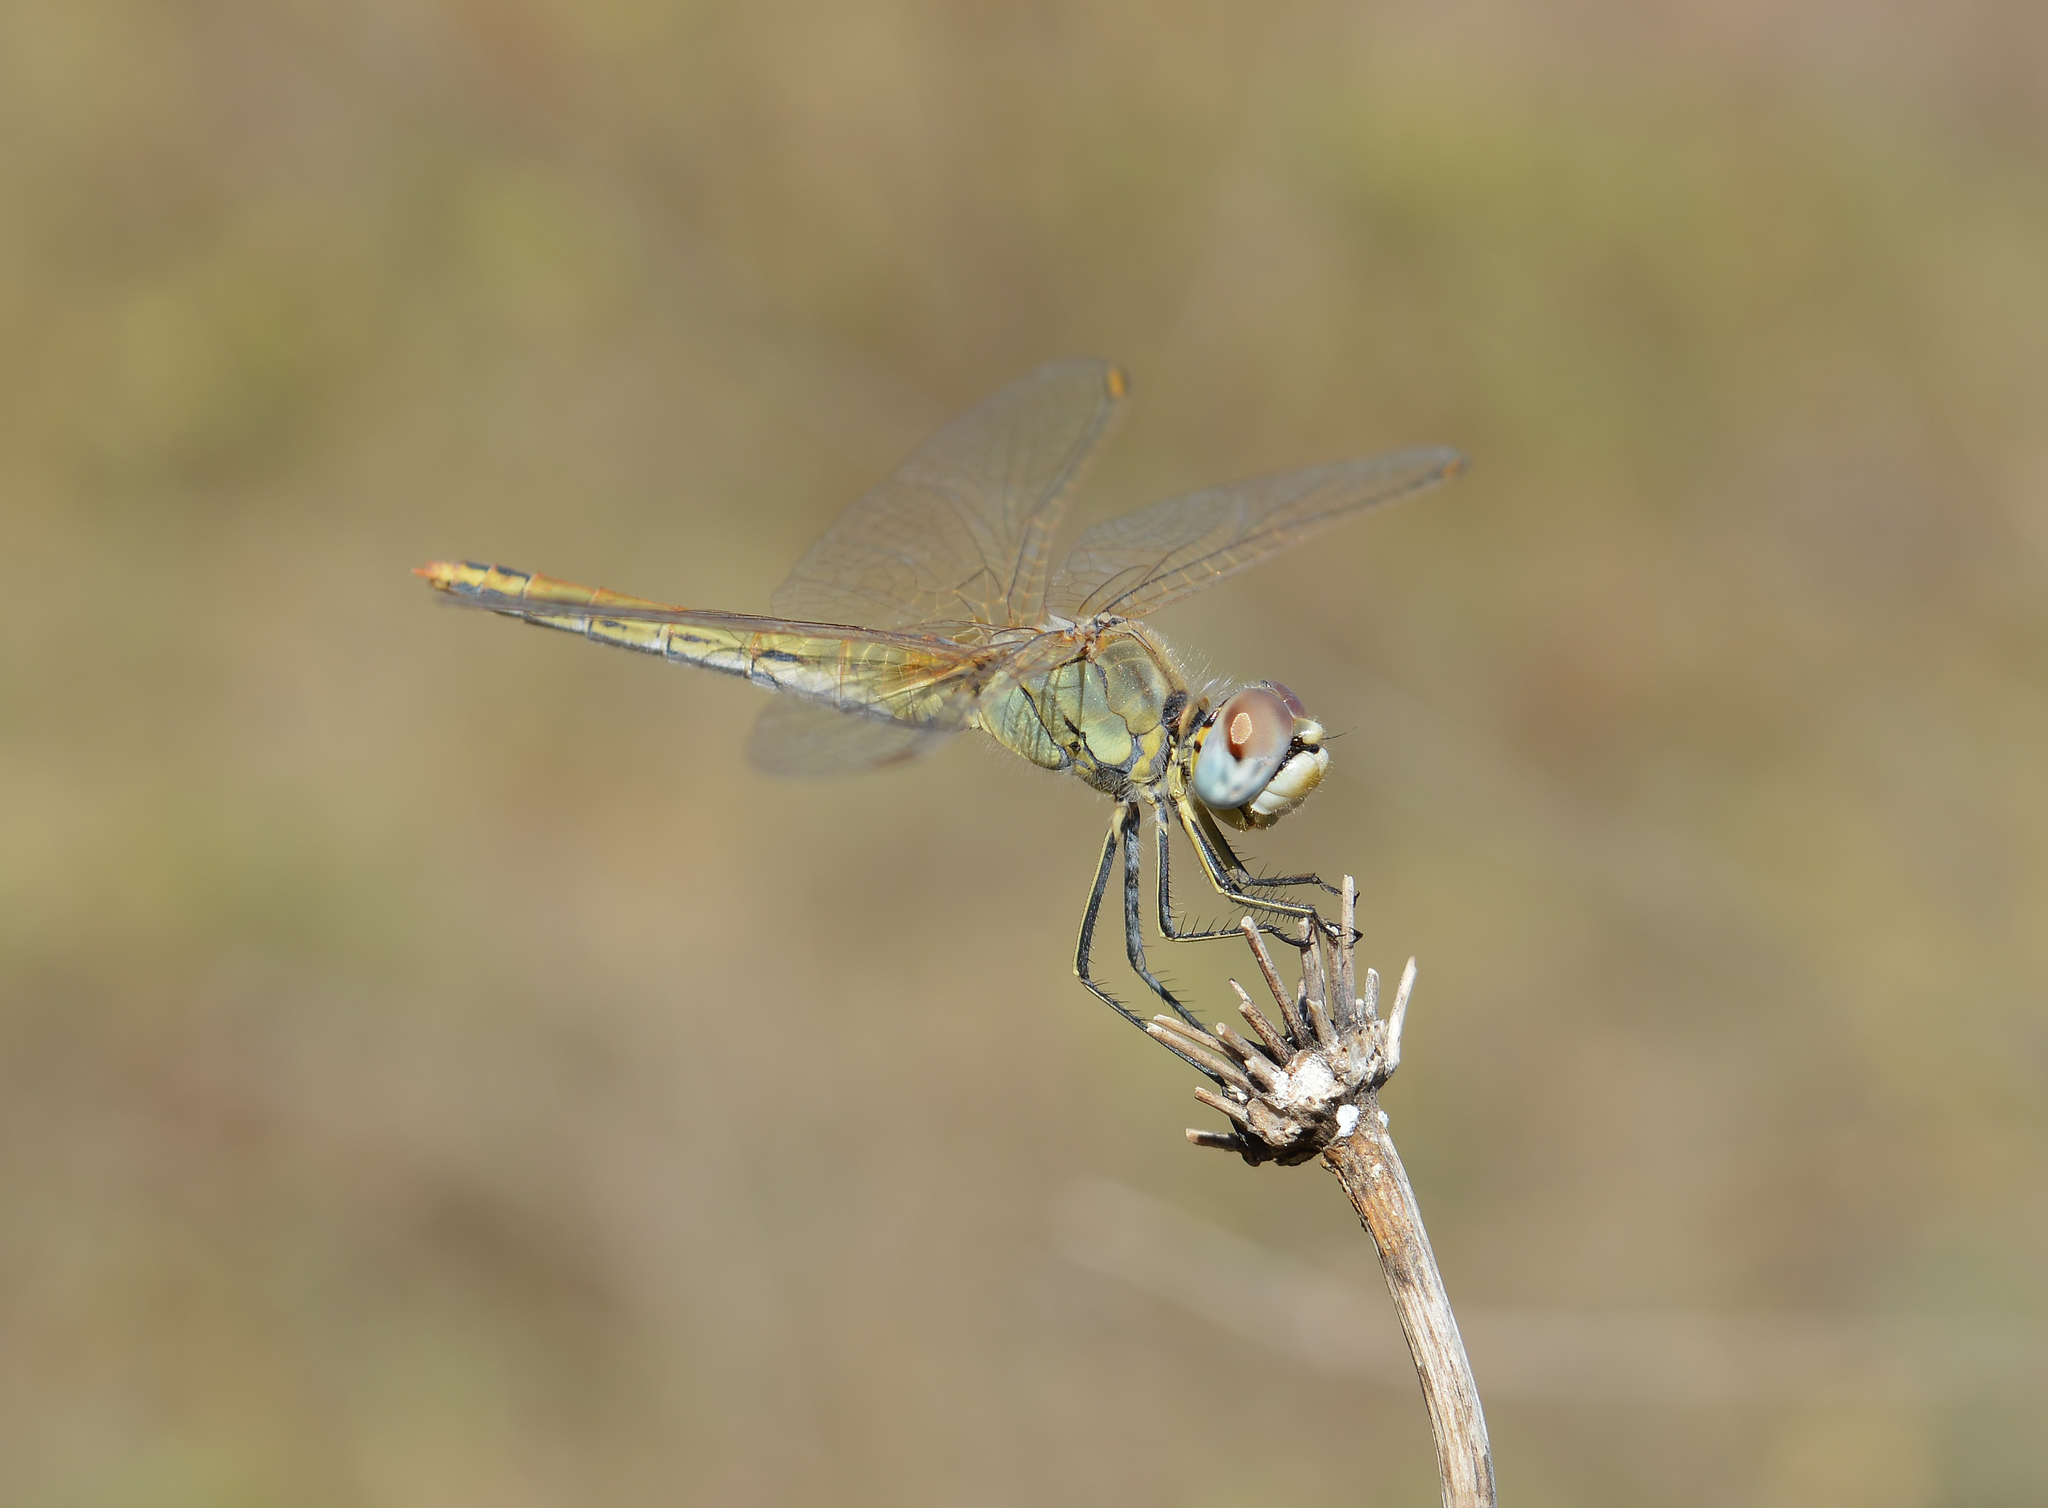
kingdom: Animalia
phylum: Arthropoda
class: Insecta
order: Odonata
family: Libellulidae
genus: Sympetrum
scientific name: Sympetrum fonscolombii
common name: Red-veined darter
